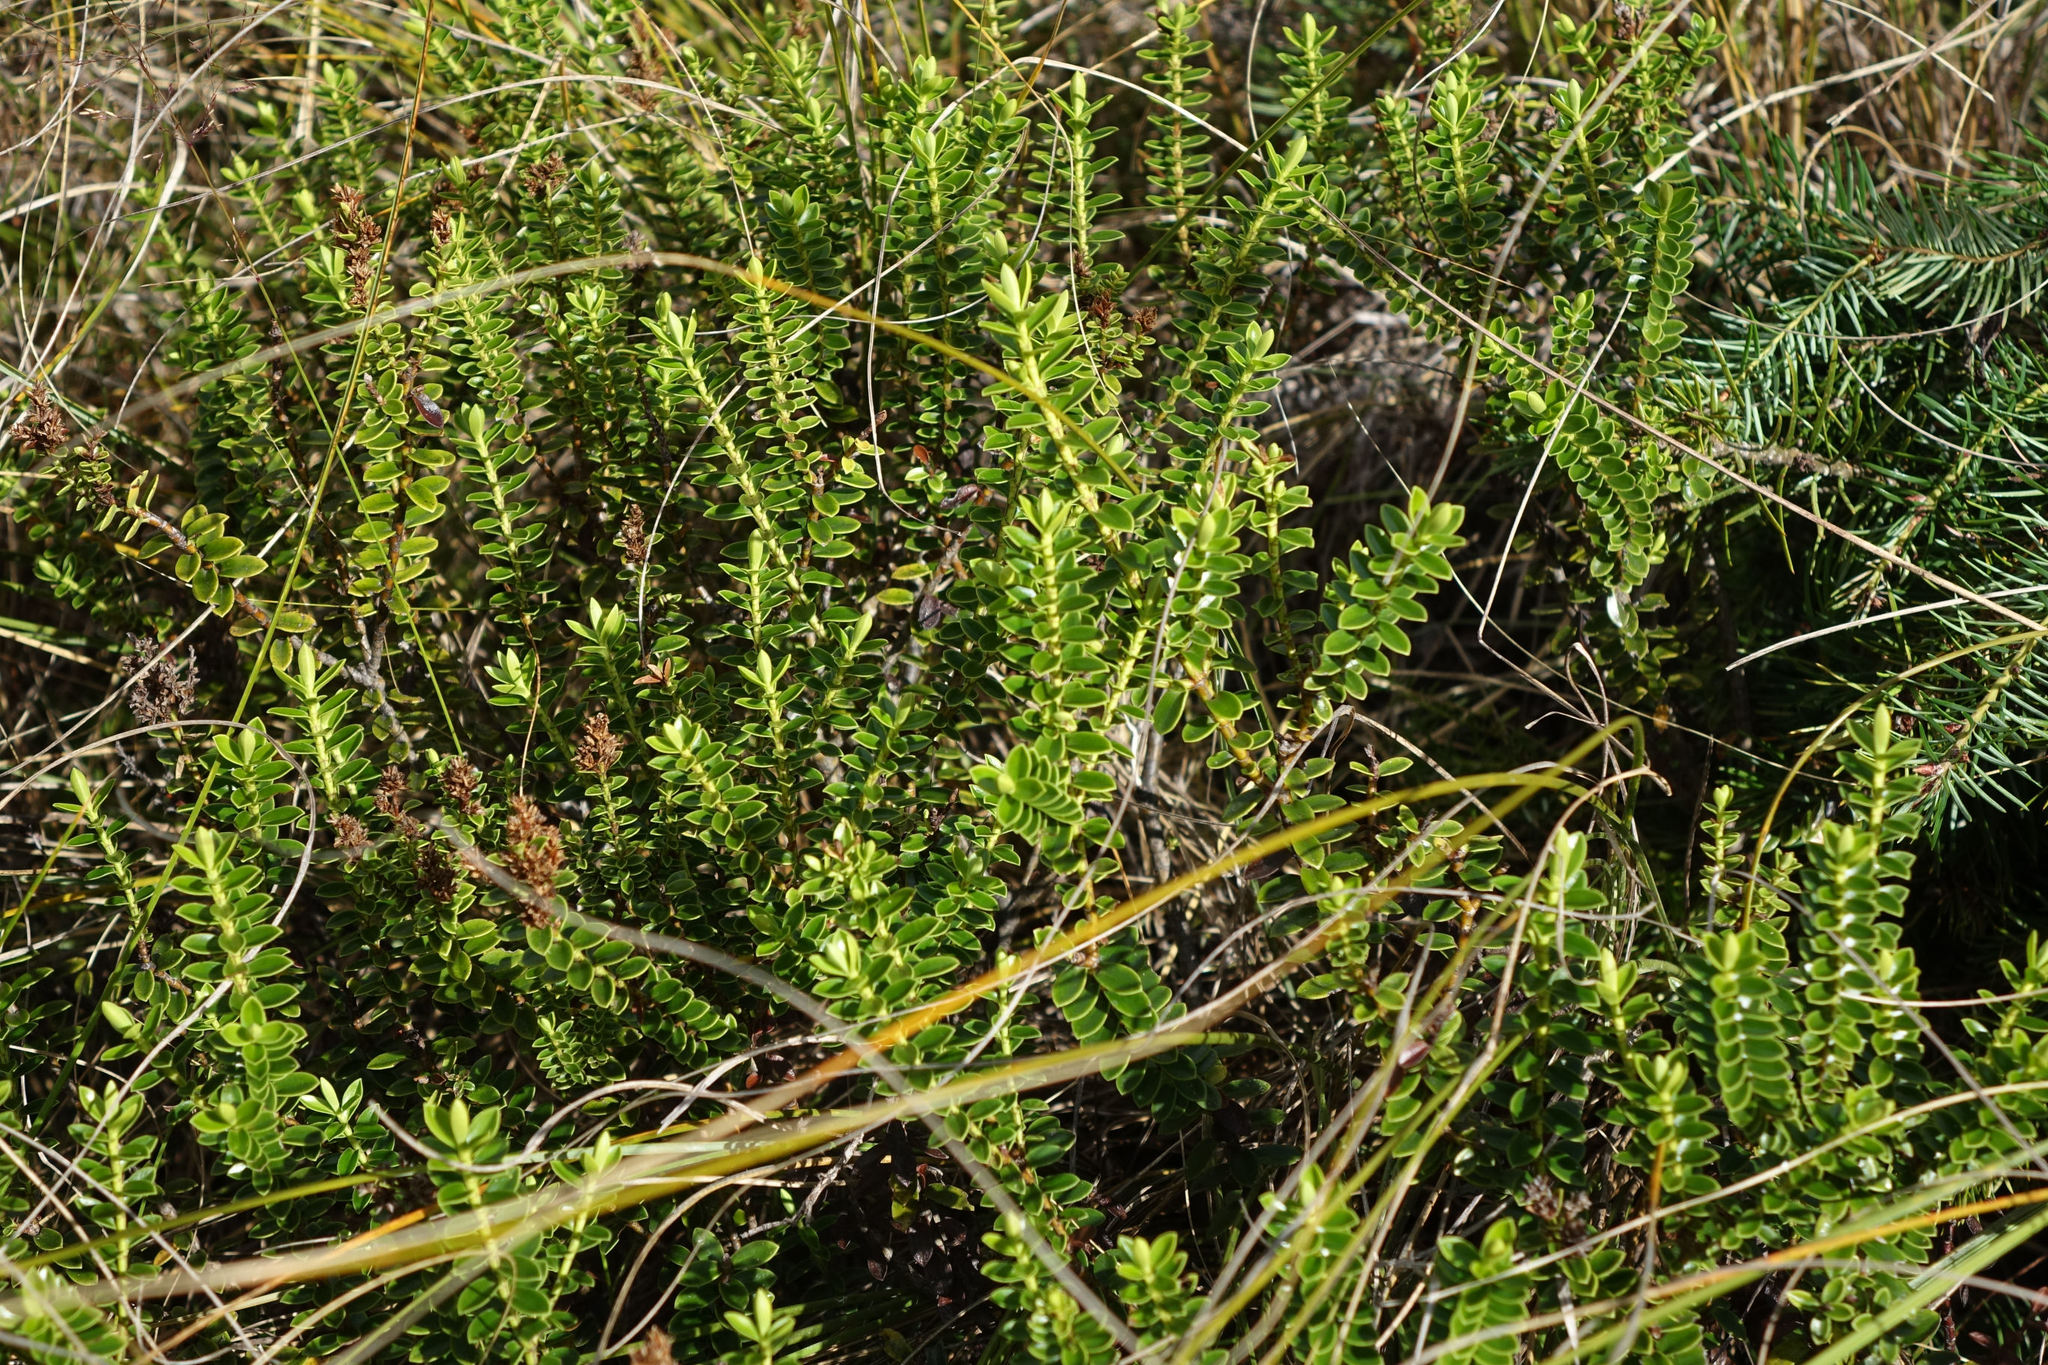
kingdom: Plantae
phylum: Tracheophyta
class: Magnoliopsida
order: Lamiales
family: Plantaginaceae
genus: Veronica
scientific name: Veronica odora
